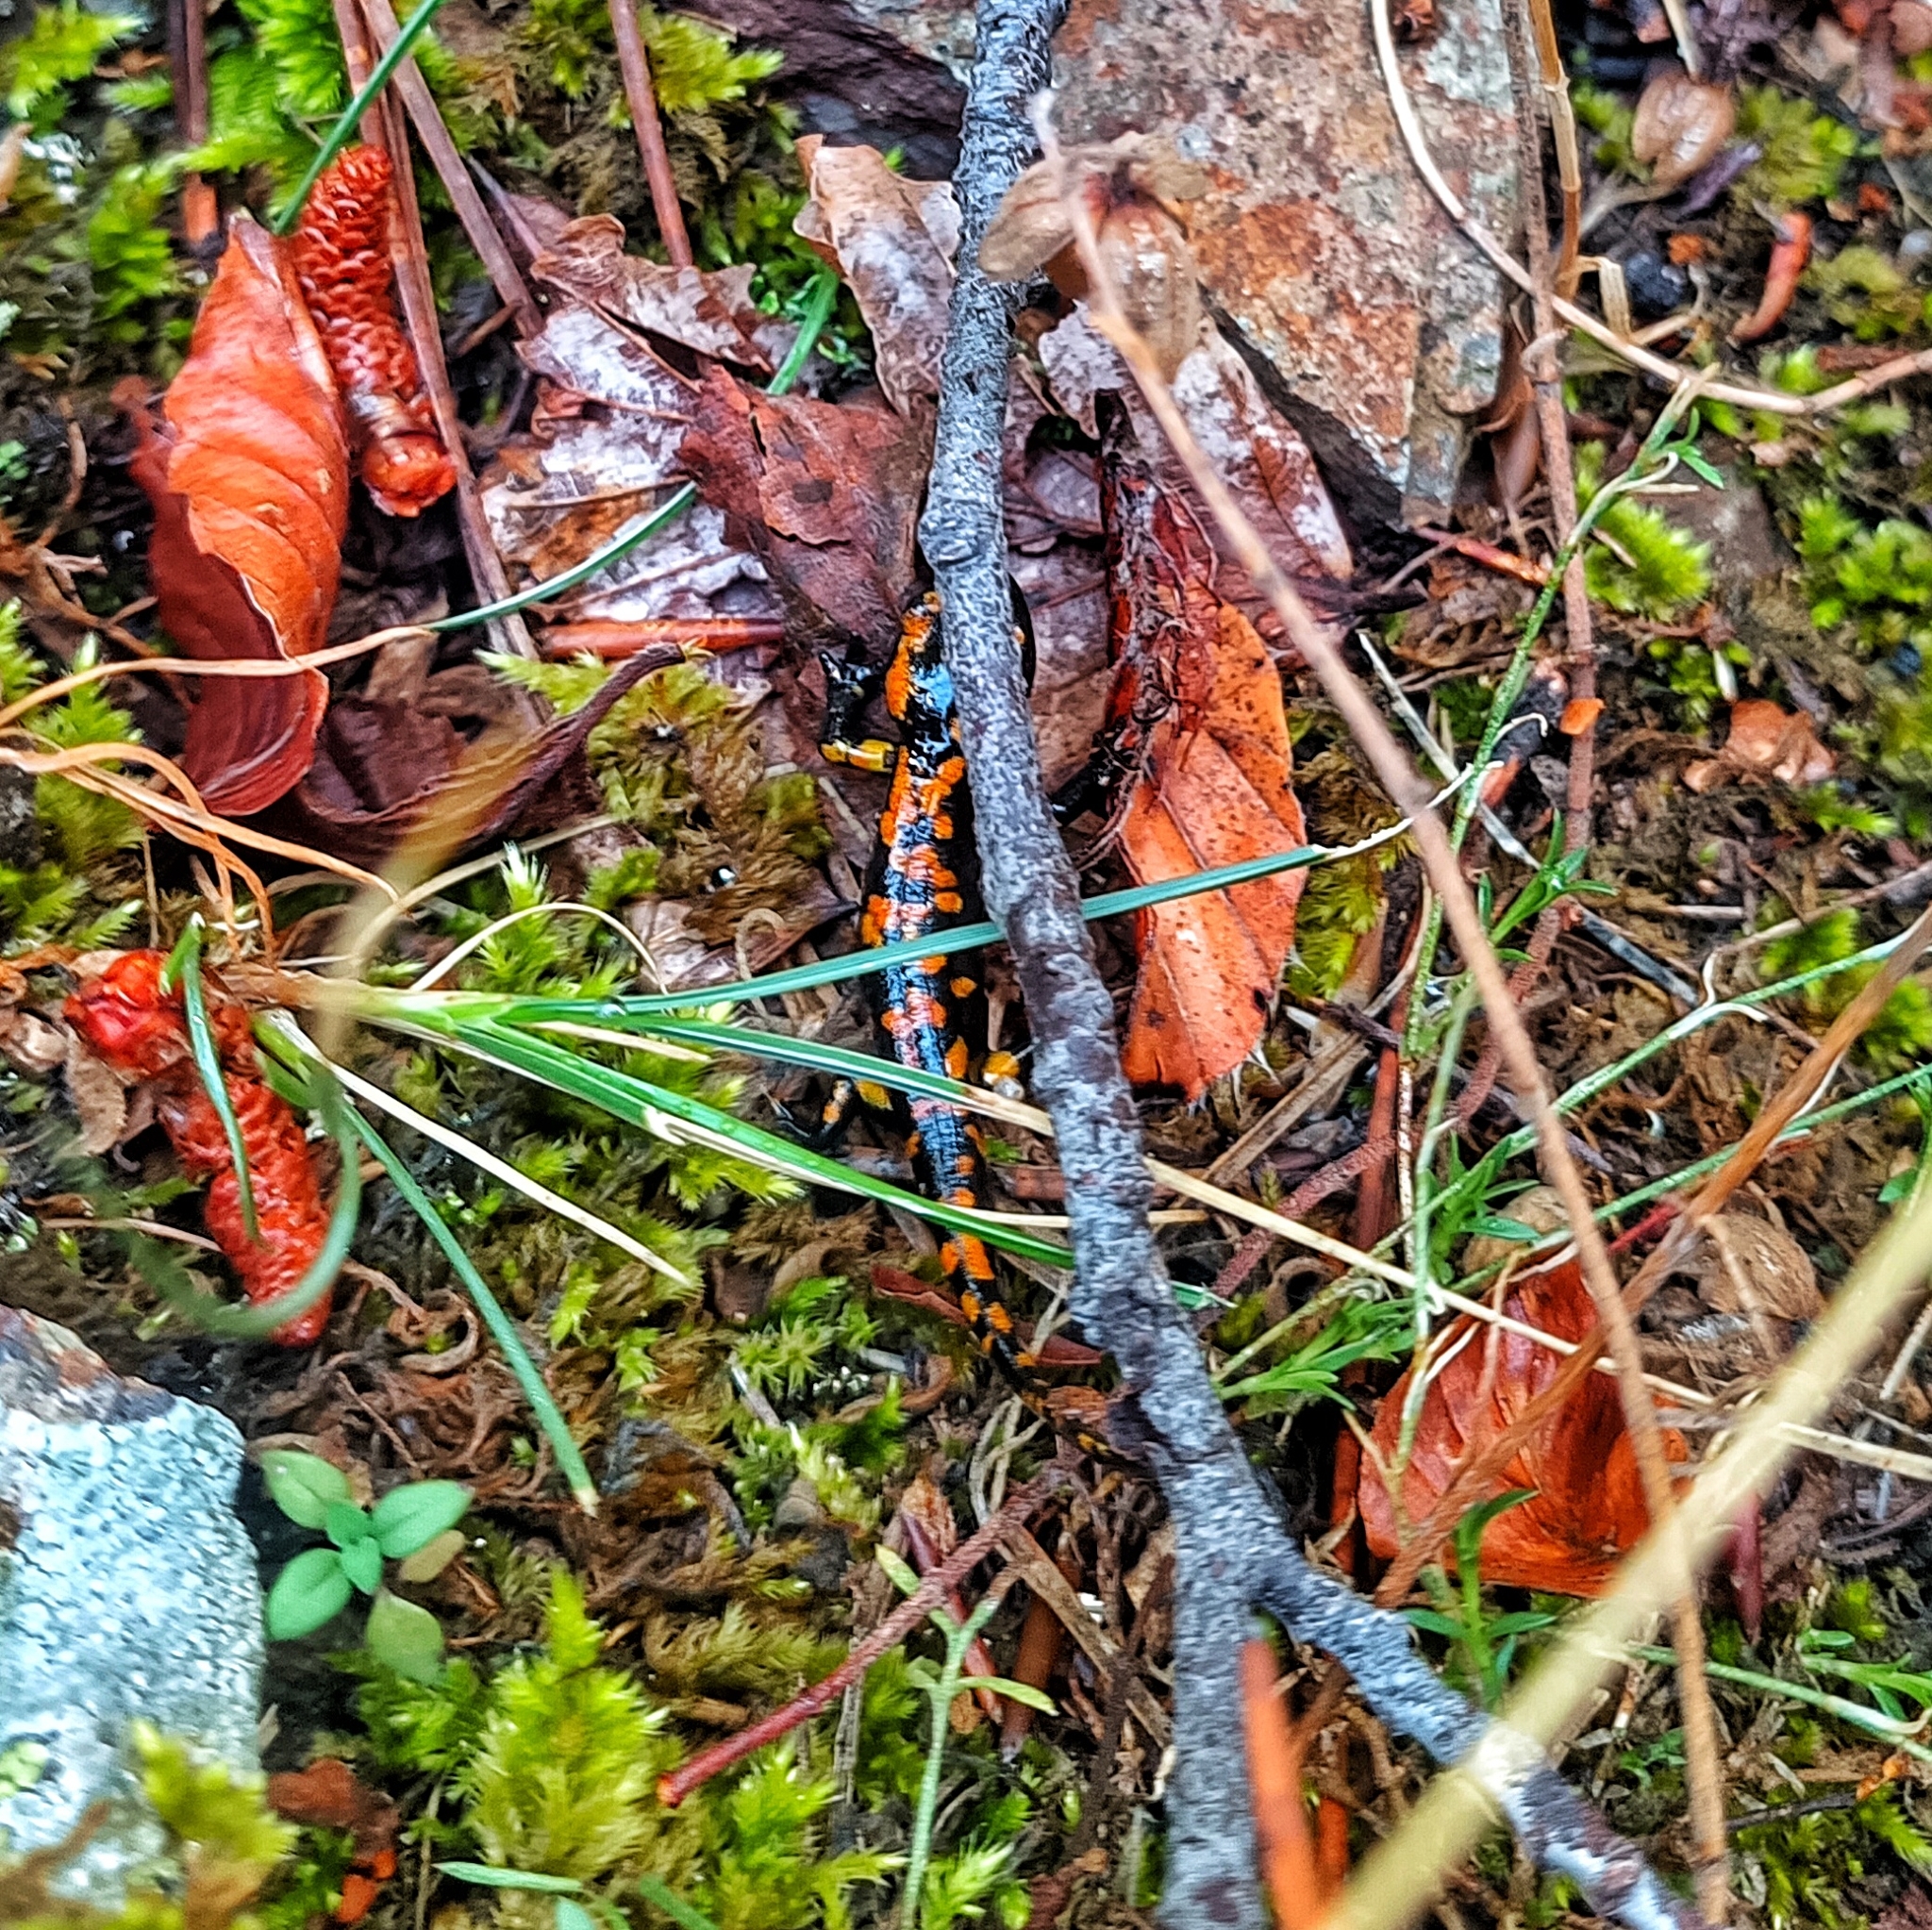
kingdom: Animalia
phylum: Chordata
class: Amphibia
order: Caudata
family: Salamandridae
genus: Salamandra
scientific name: Salamandra salamandra
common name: Fire salamander
